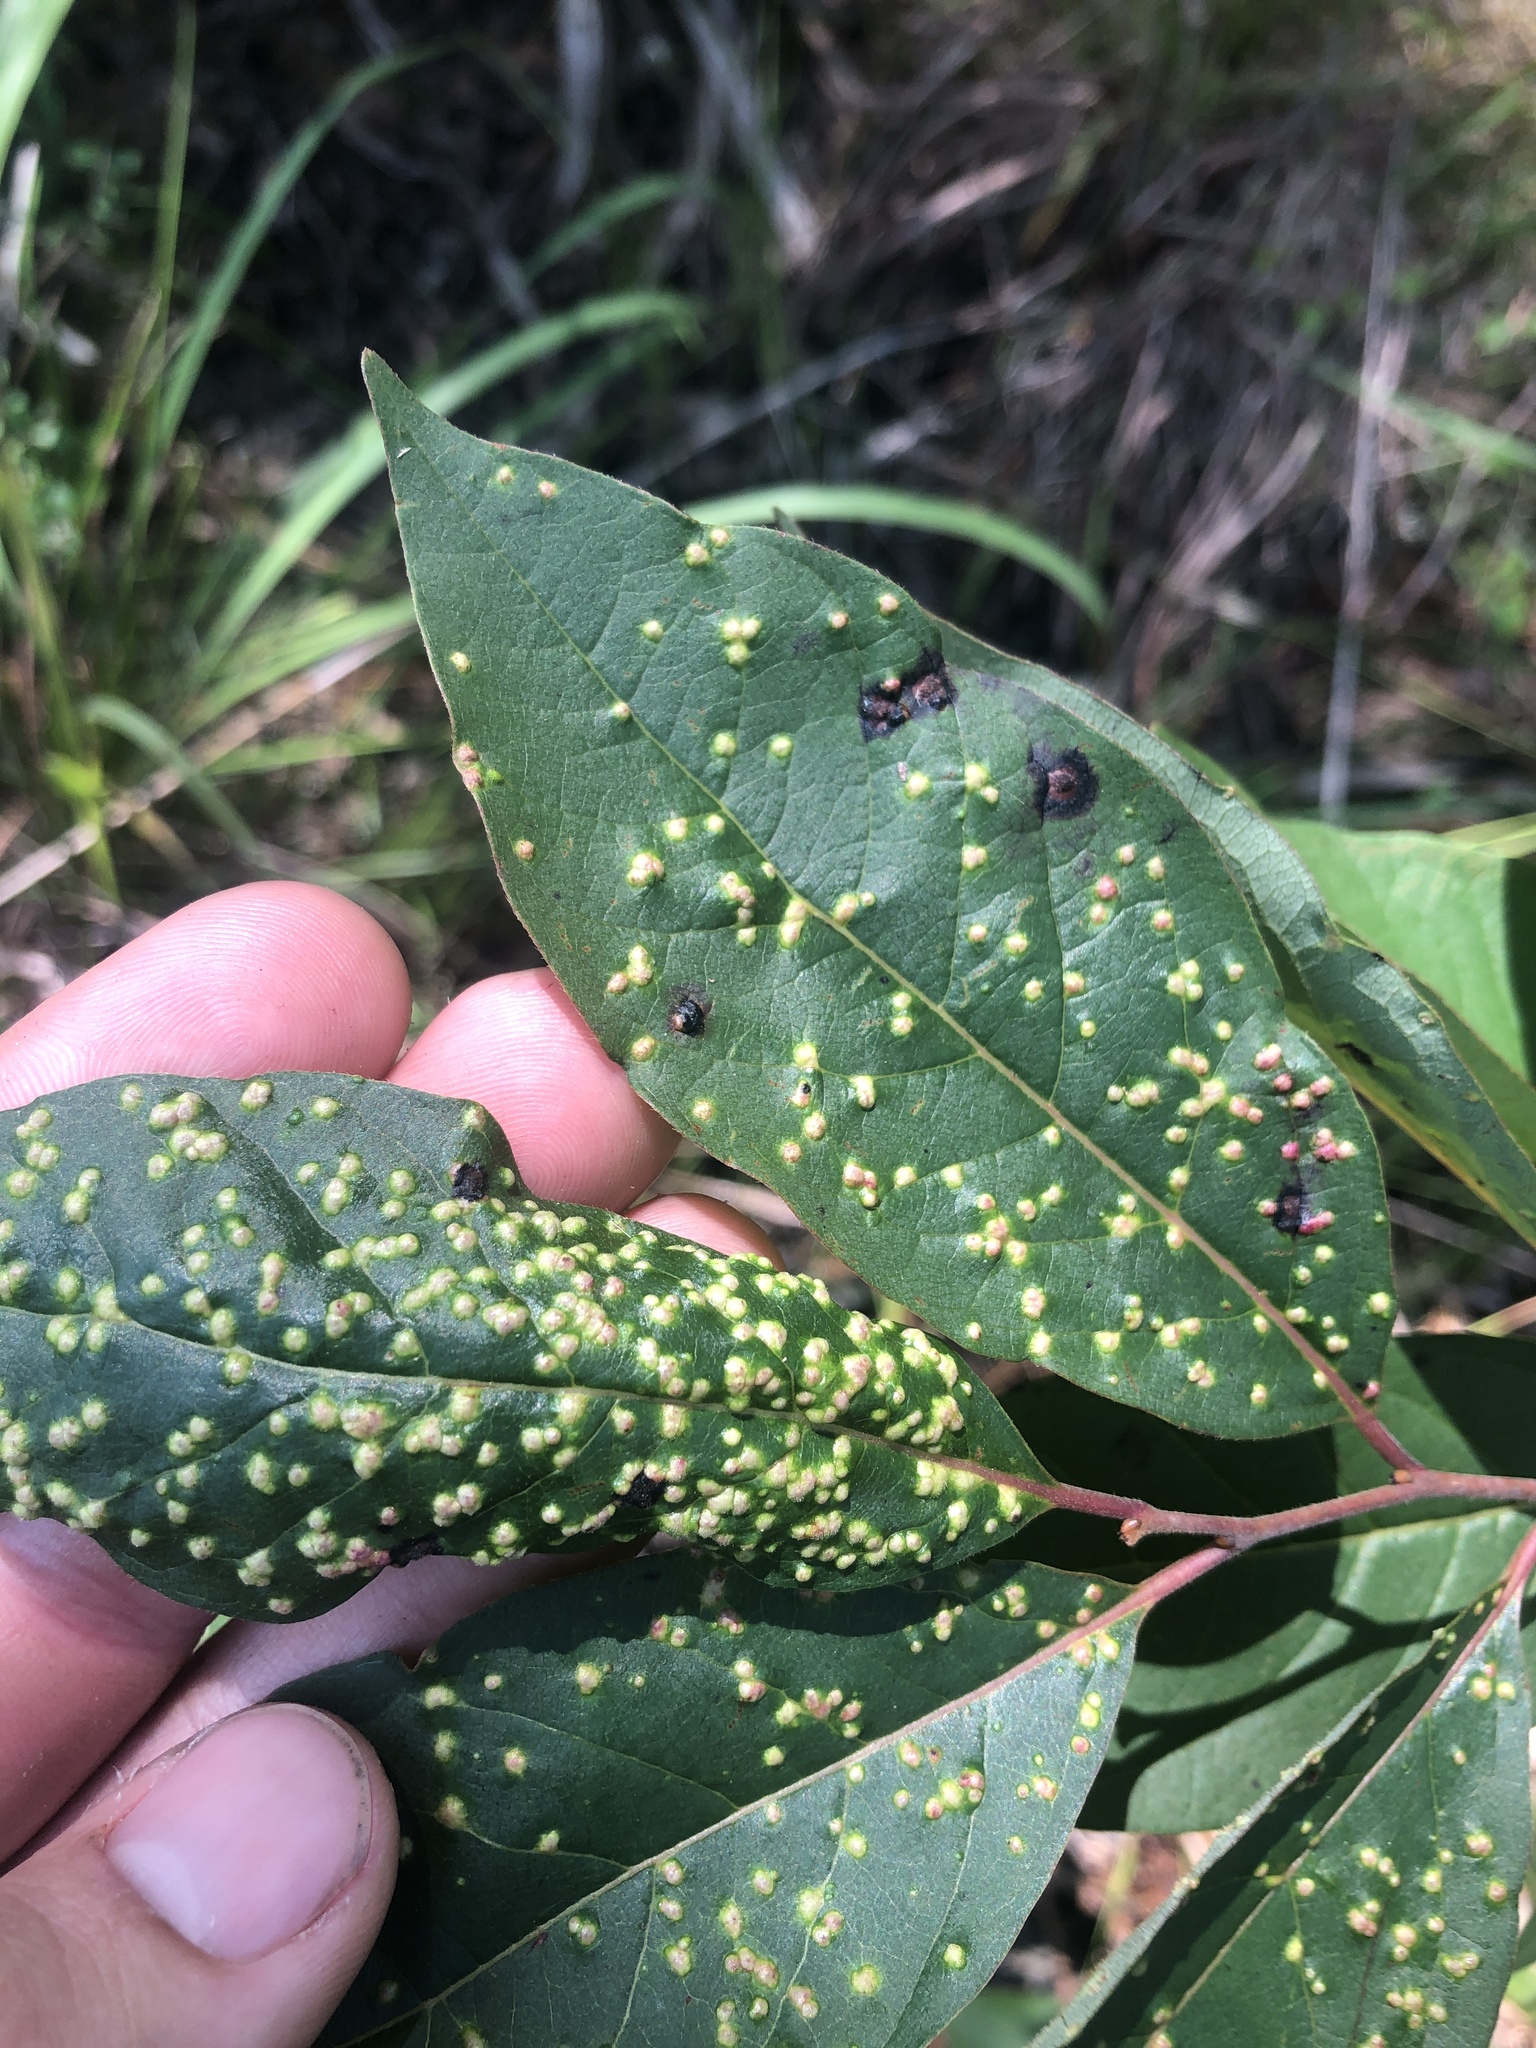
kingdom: Animalia
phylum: Arthropoda
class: Arachnida
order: Trombidiformes
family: Eriophyidae
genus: Aceria
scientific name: Aceria
